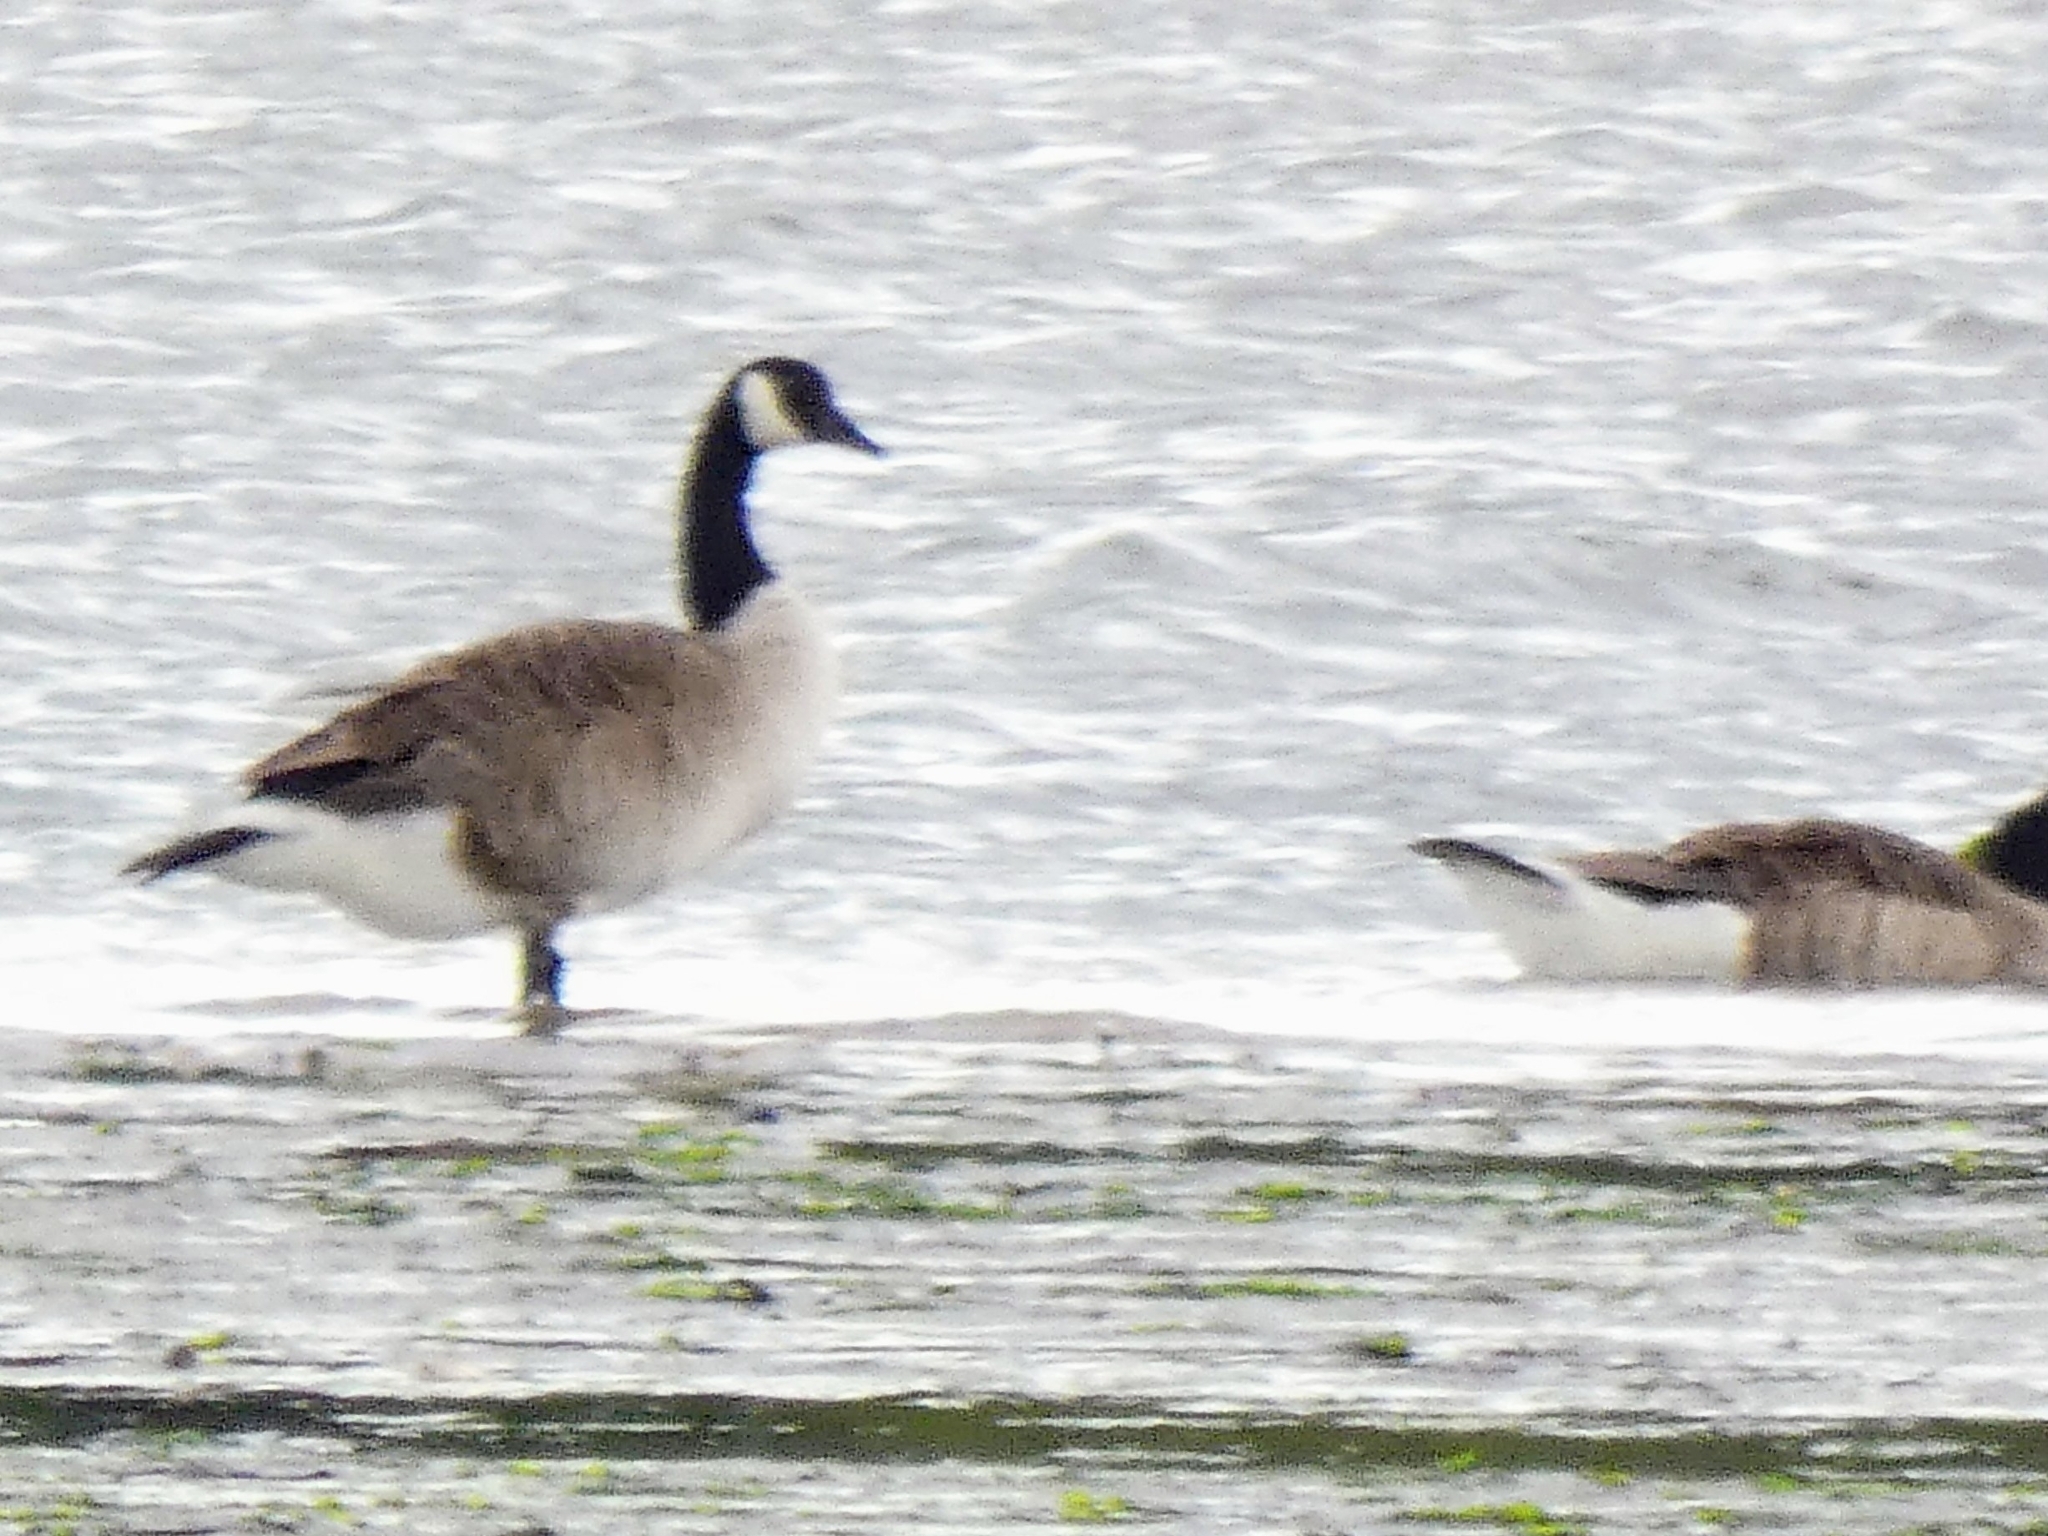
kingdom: Animalia
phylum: Chordata
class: Aves
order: Anseriformes
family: Anatidae
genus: Branta
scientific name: Branta canadensis
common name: Canada goose
